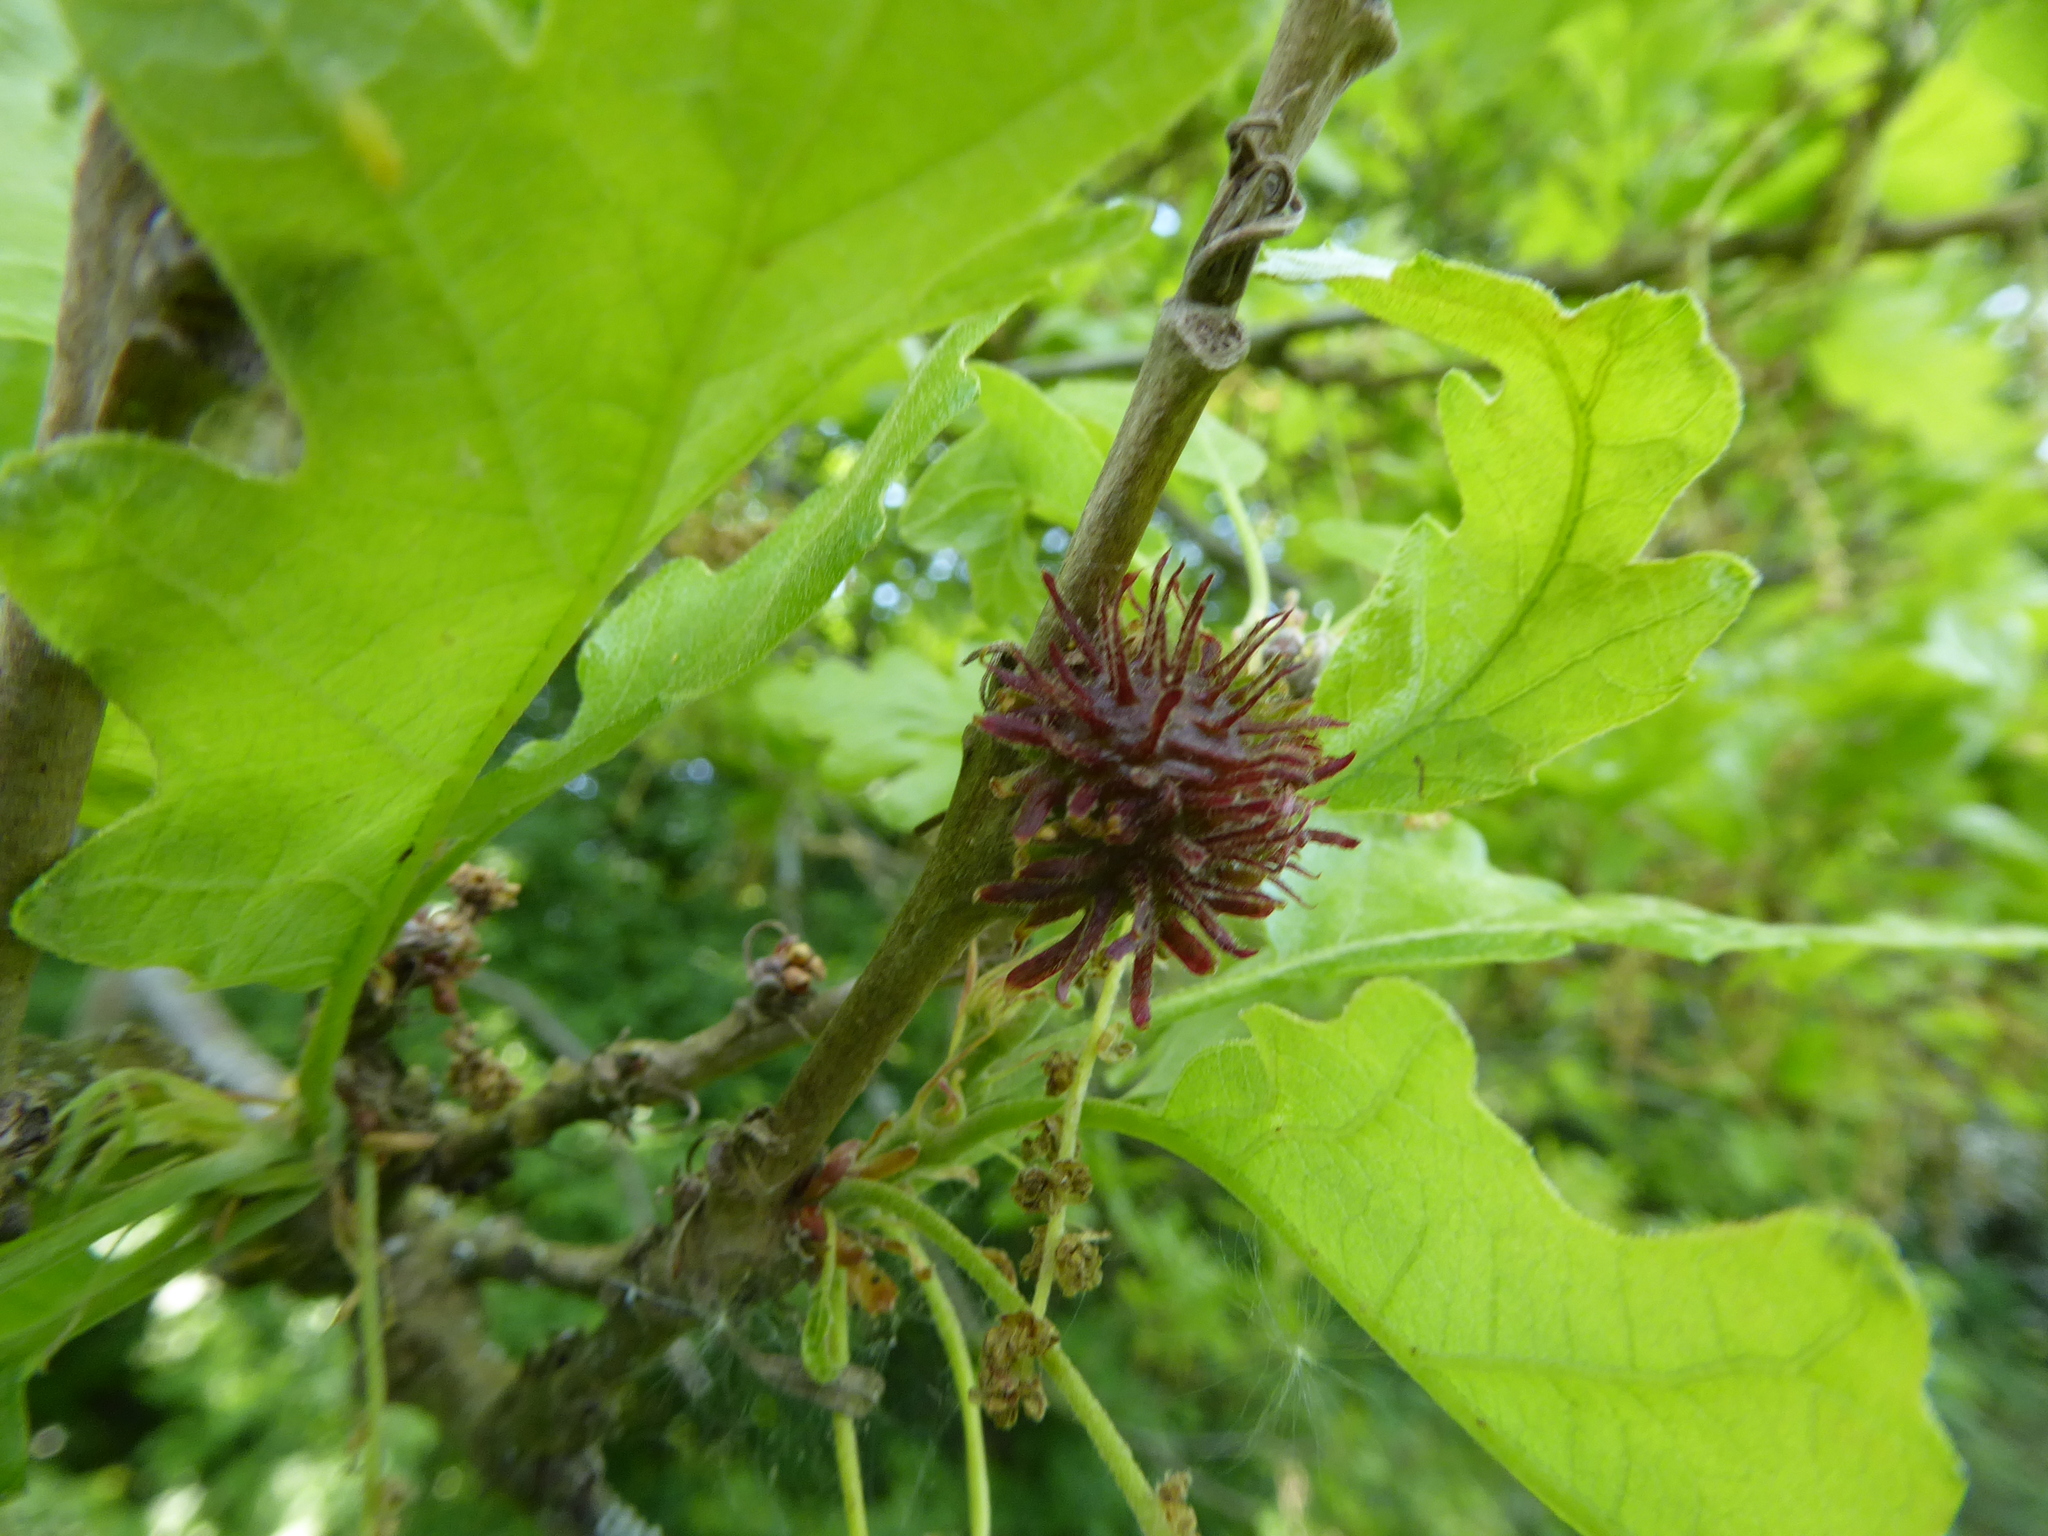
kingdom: Animalia
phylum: Arthropoda
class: Insecta
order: Hymenoptera
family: Cynipidae
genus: Neuroterus
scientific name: Neuroterus saliens
